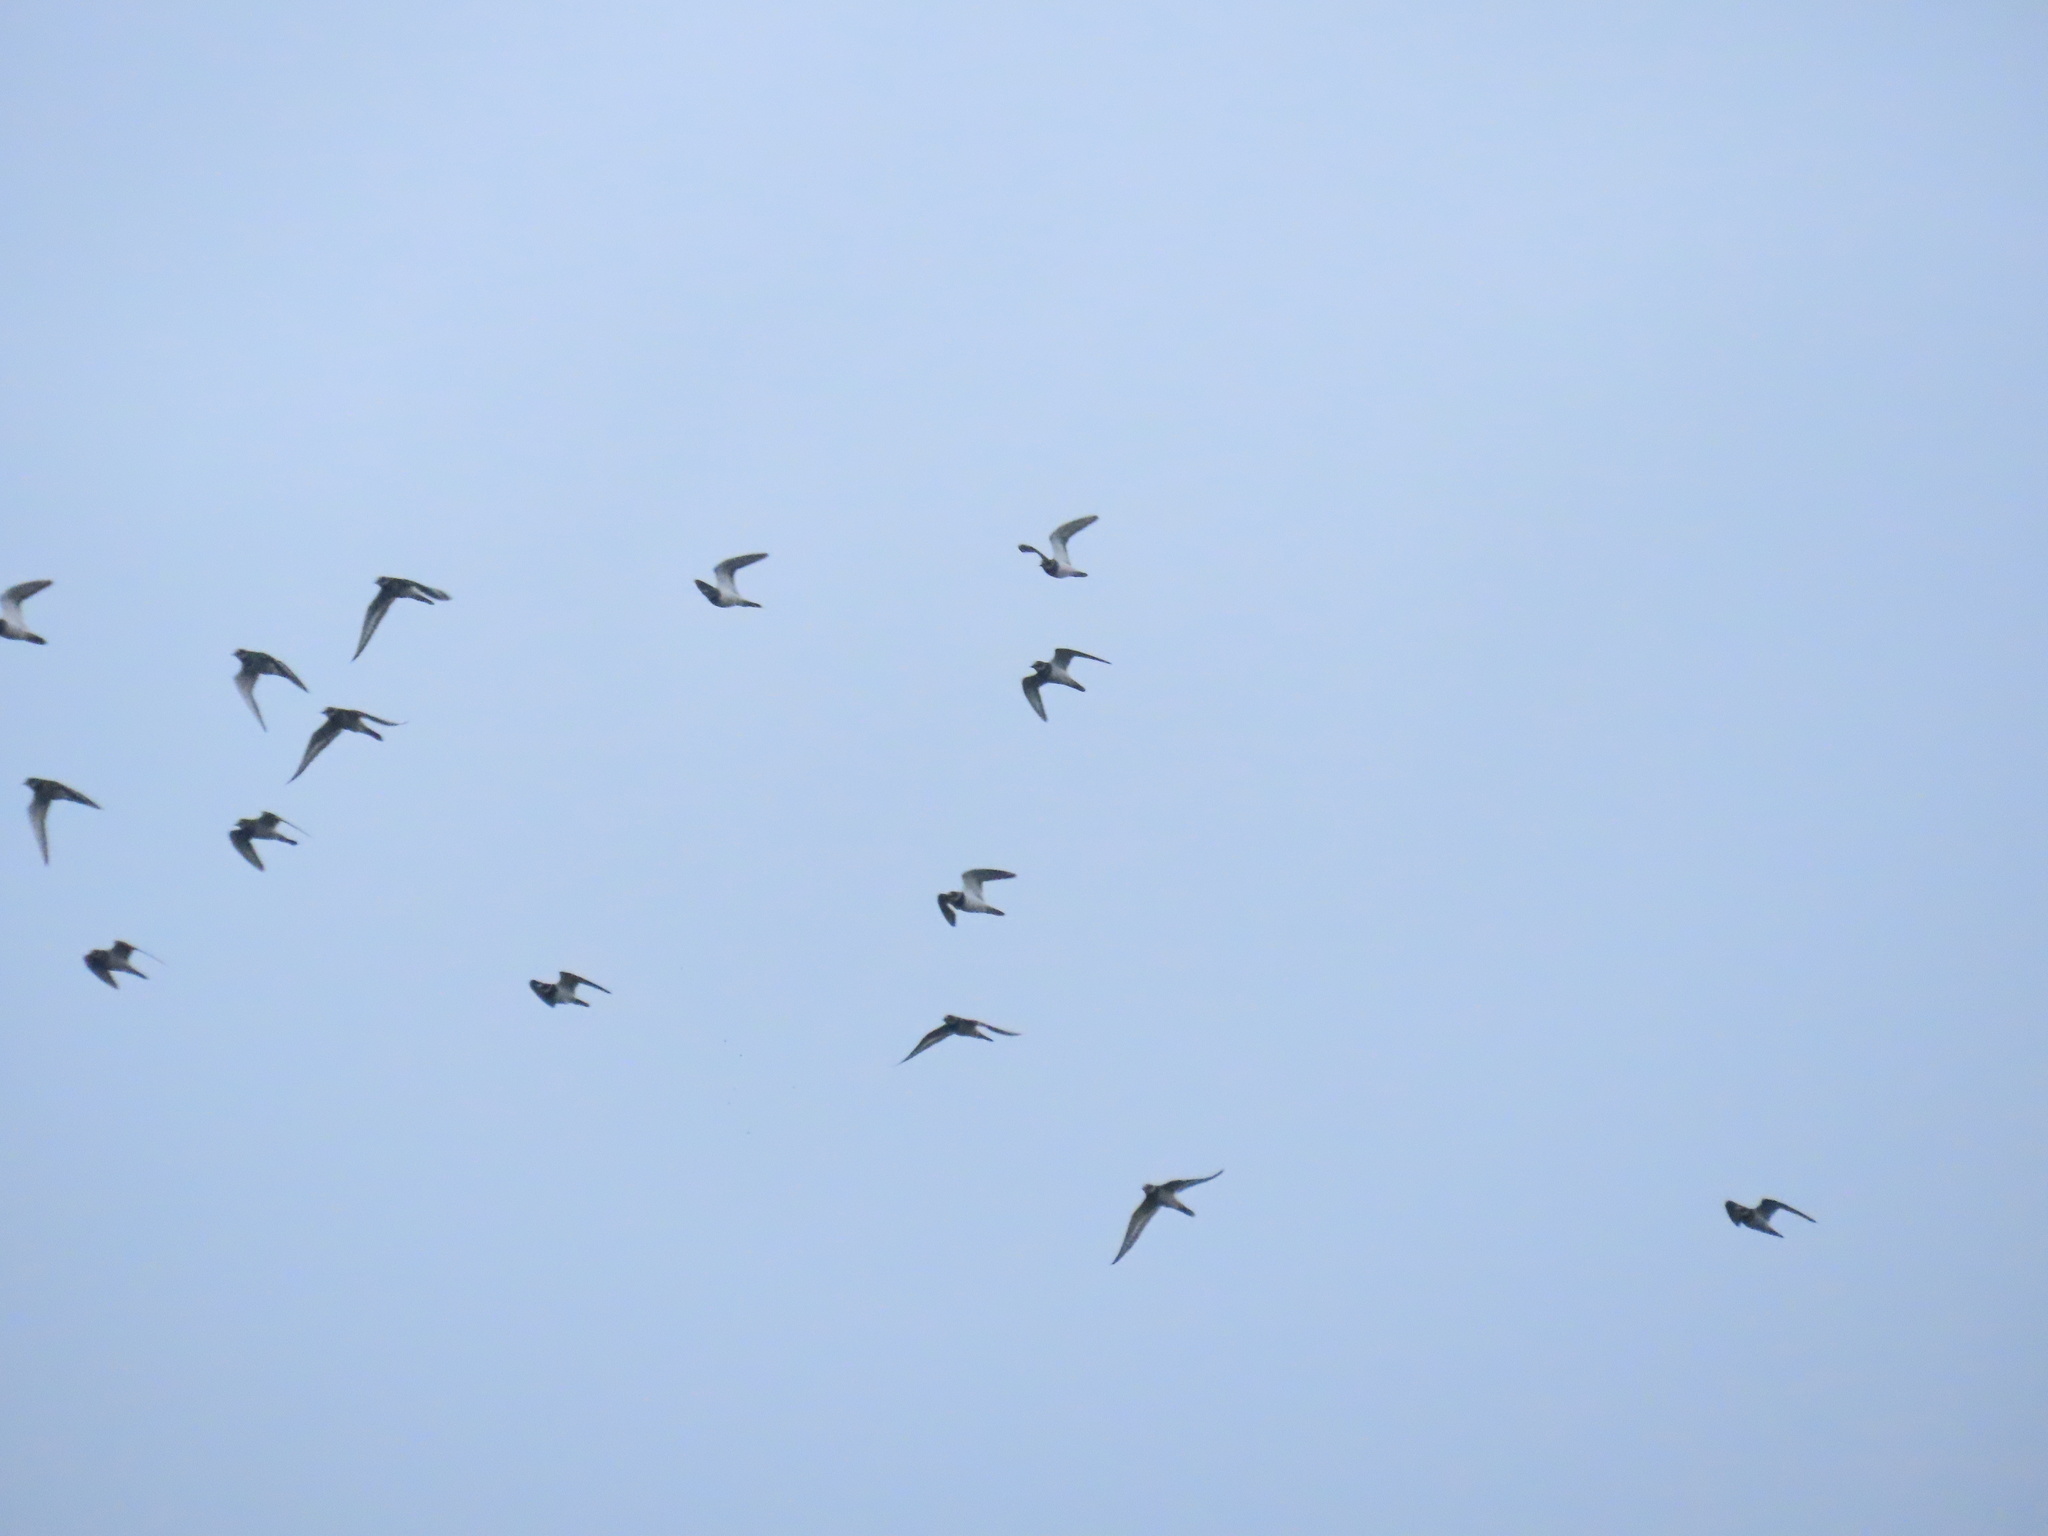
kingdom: Animalia
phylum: Chordata
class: Aves
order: Charadriiformes
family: Charadriidae
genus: Charadrius
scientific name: Charadrius vociferus
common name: Killdeer
